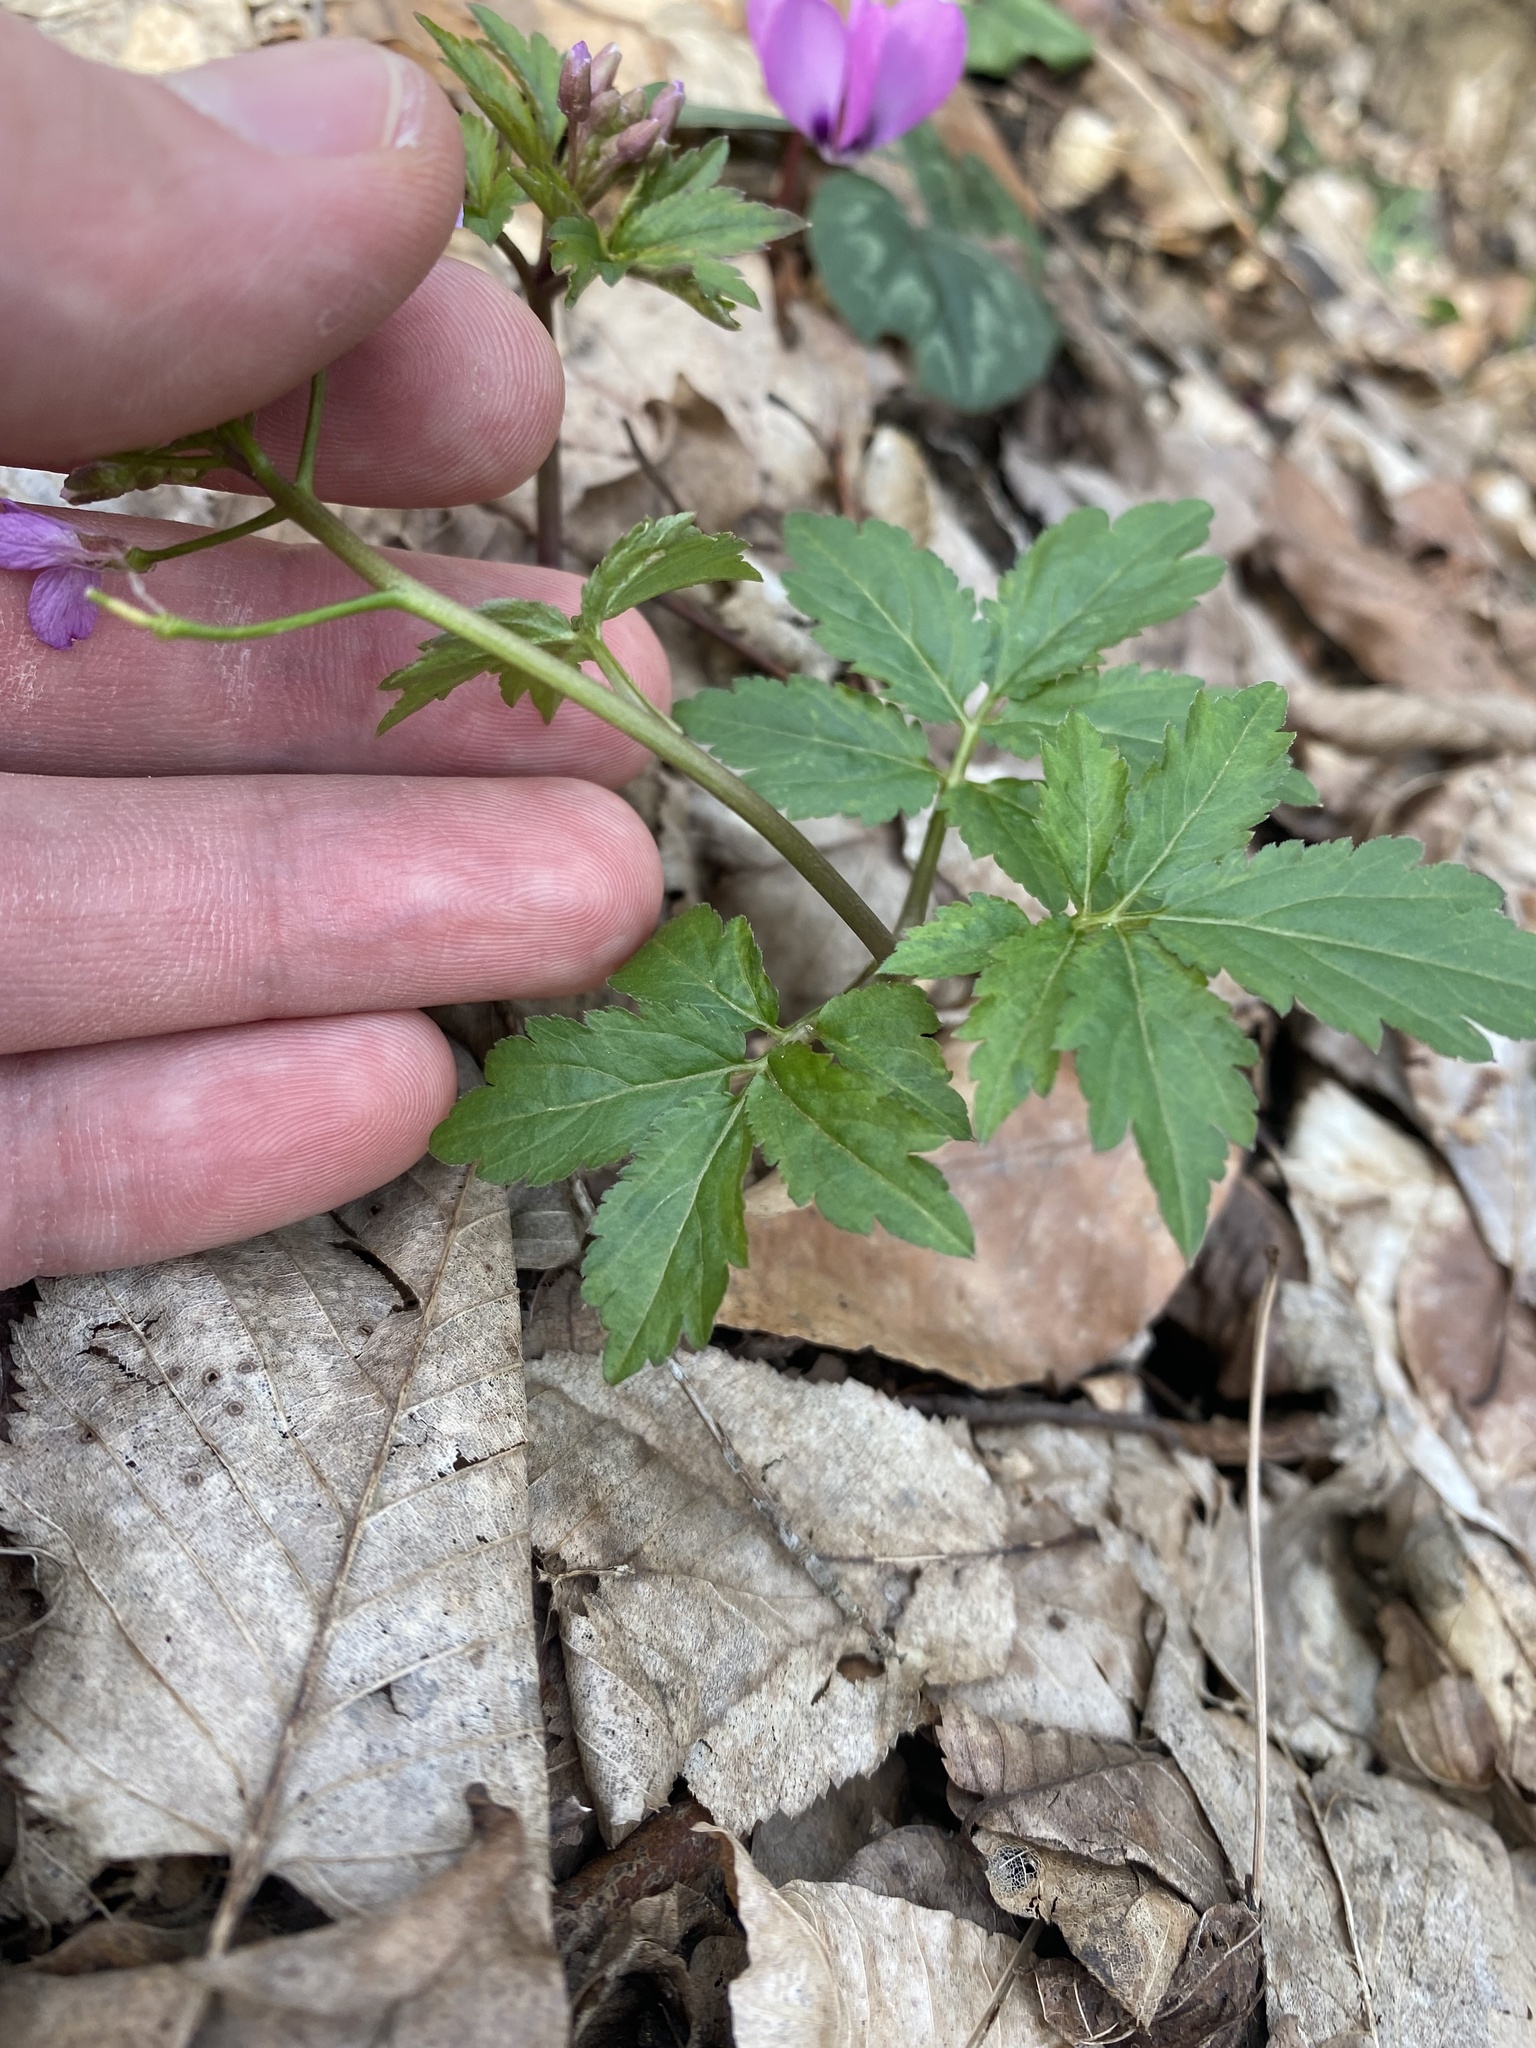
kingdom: Plantae
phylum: Tracheophyta
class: Magnoliopsida
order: Brassicales
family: Brassicaceae
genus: Cardamine
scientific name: Cardamine quinquefolia
